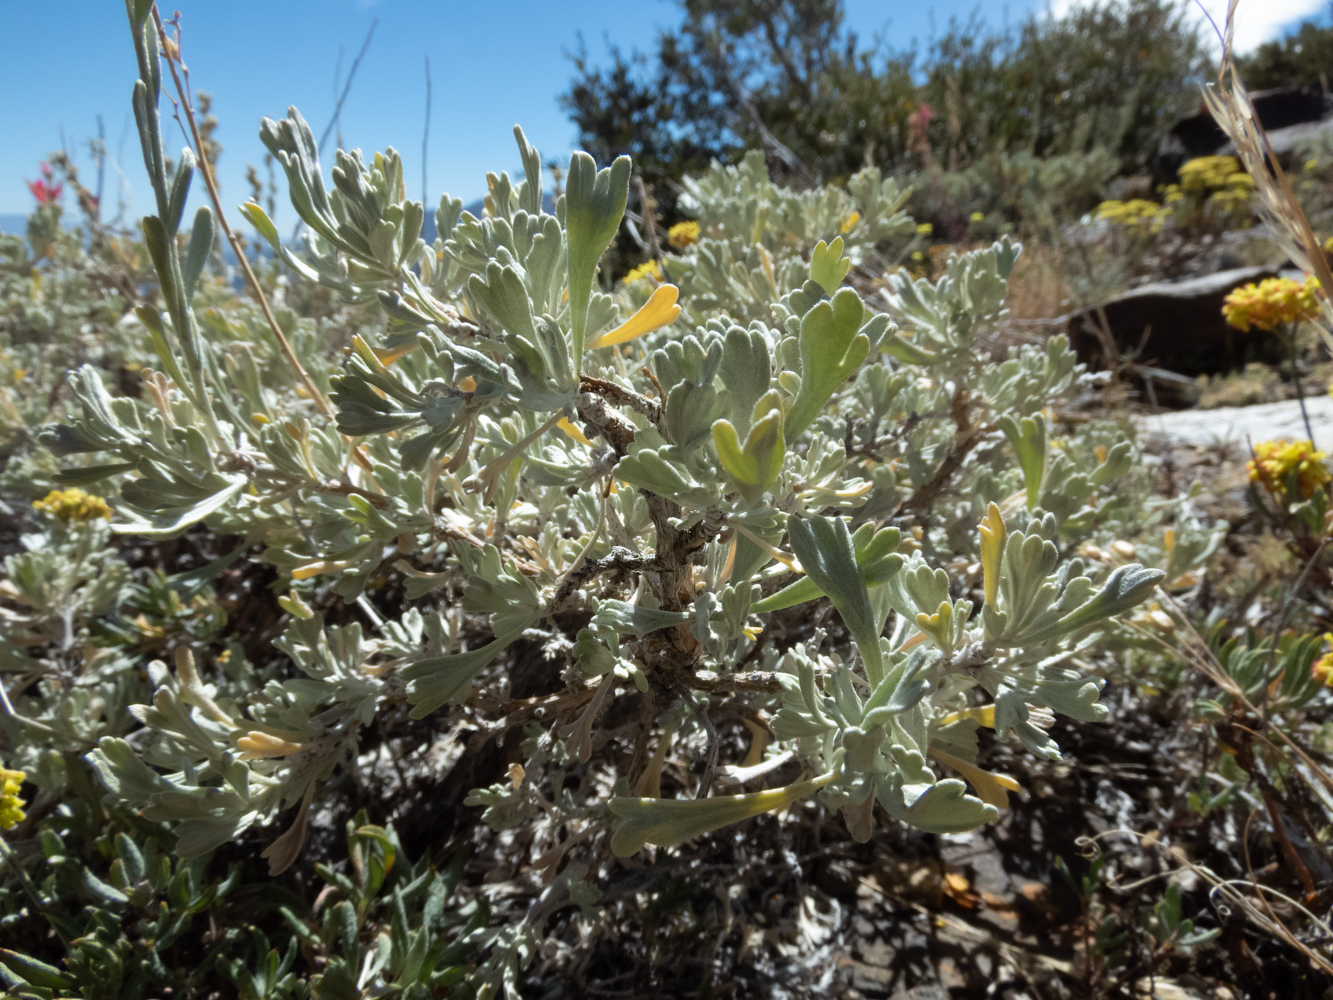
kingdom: Plantae
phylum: Tracheophyta
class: Magnoliopsida
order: Asterales
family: Asteraceae
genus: Artemisia
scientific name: Artemisia tridentata
